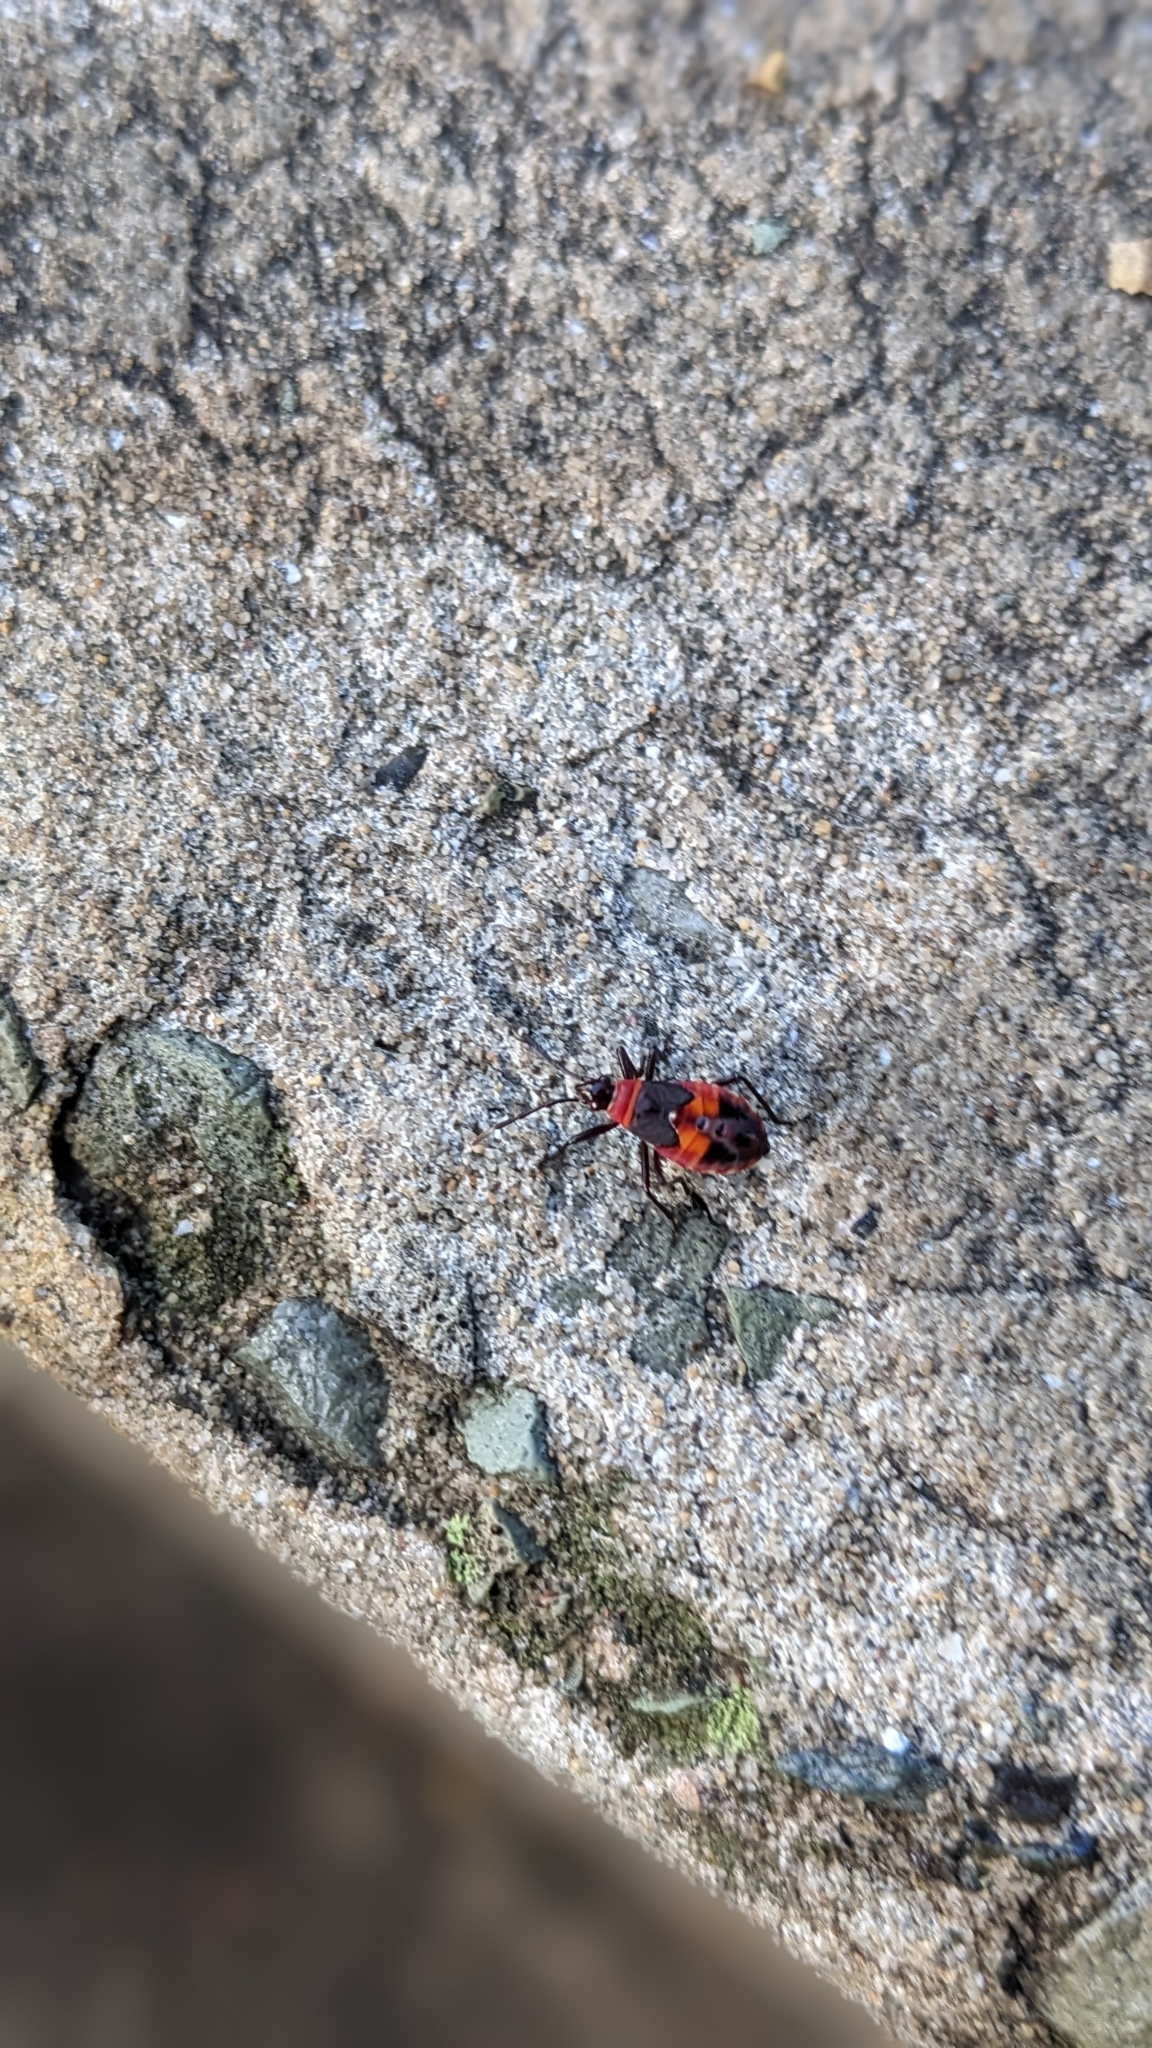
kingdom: Animalia
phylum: Arthropoda
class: Insecta
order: Hemiptera
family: Pyrrhocoridae
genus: Dindymus
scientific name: Dindymus
